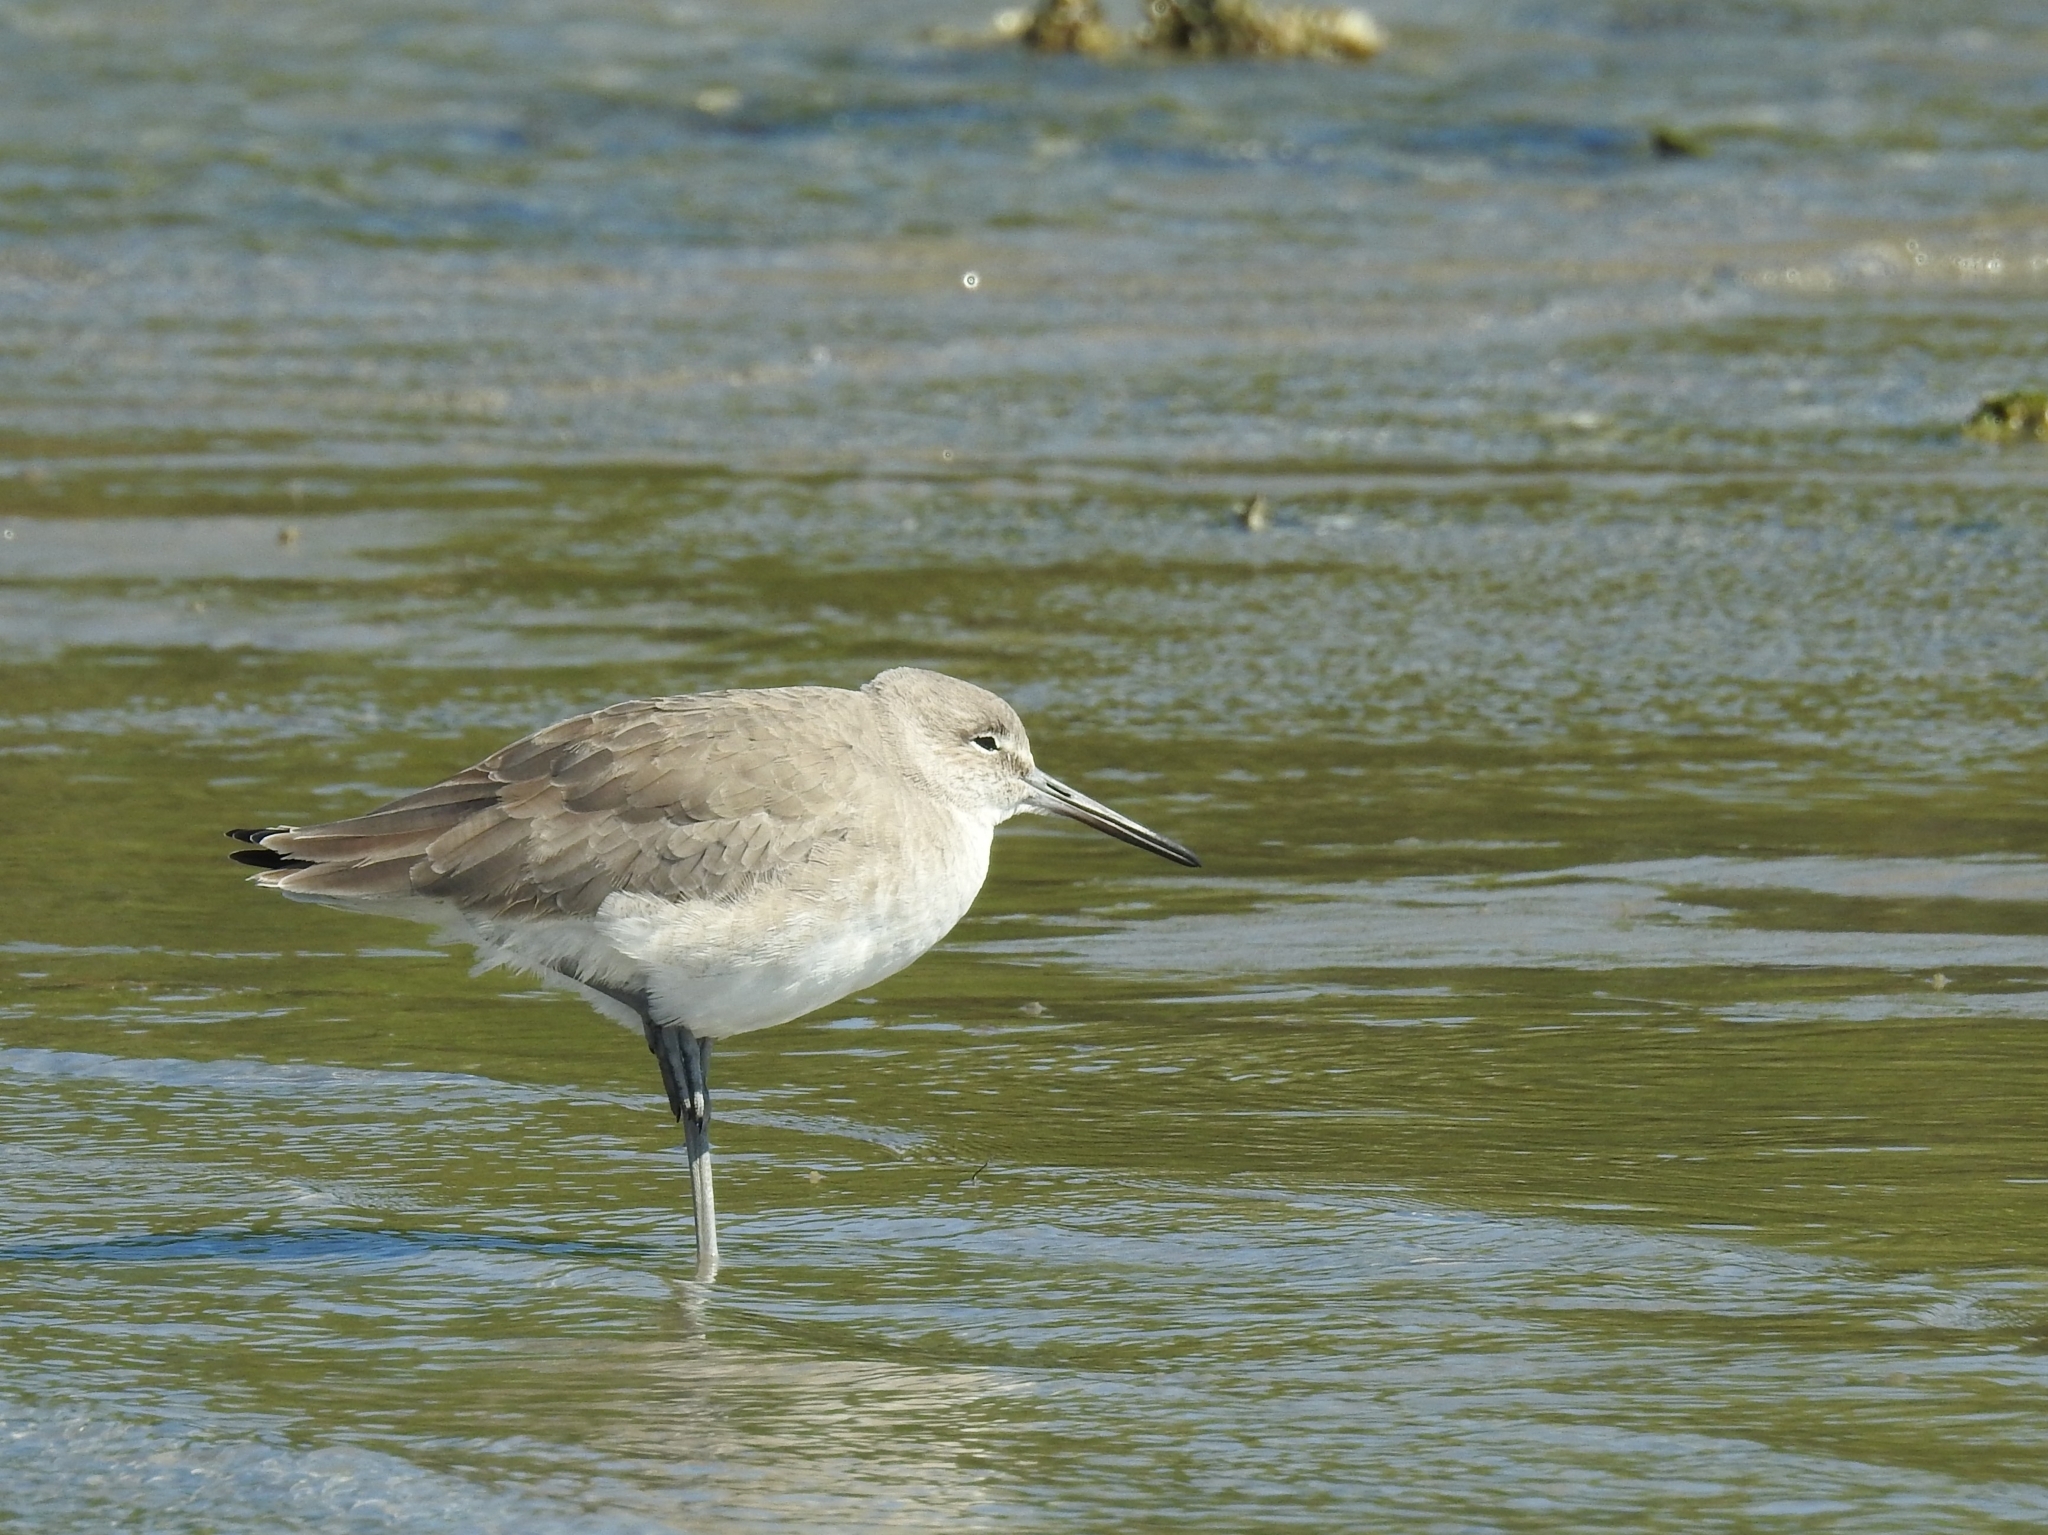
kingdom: Animalia
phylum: Chordata
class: Aves
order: Charadriiformes
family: Scolopacidae
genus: Tringa
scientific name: Tringa semipalmata
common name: Willet
